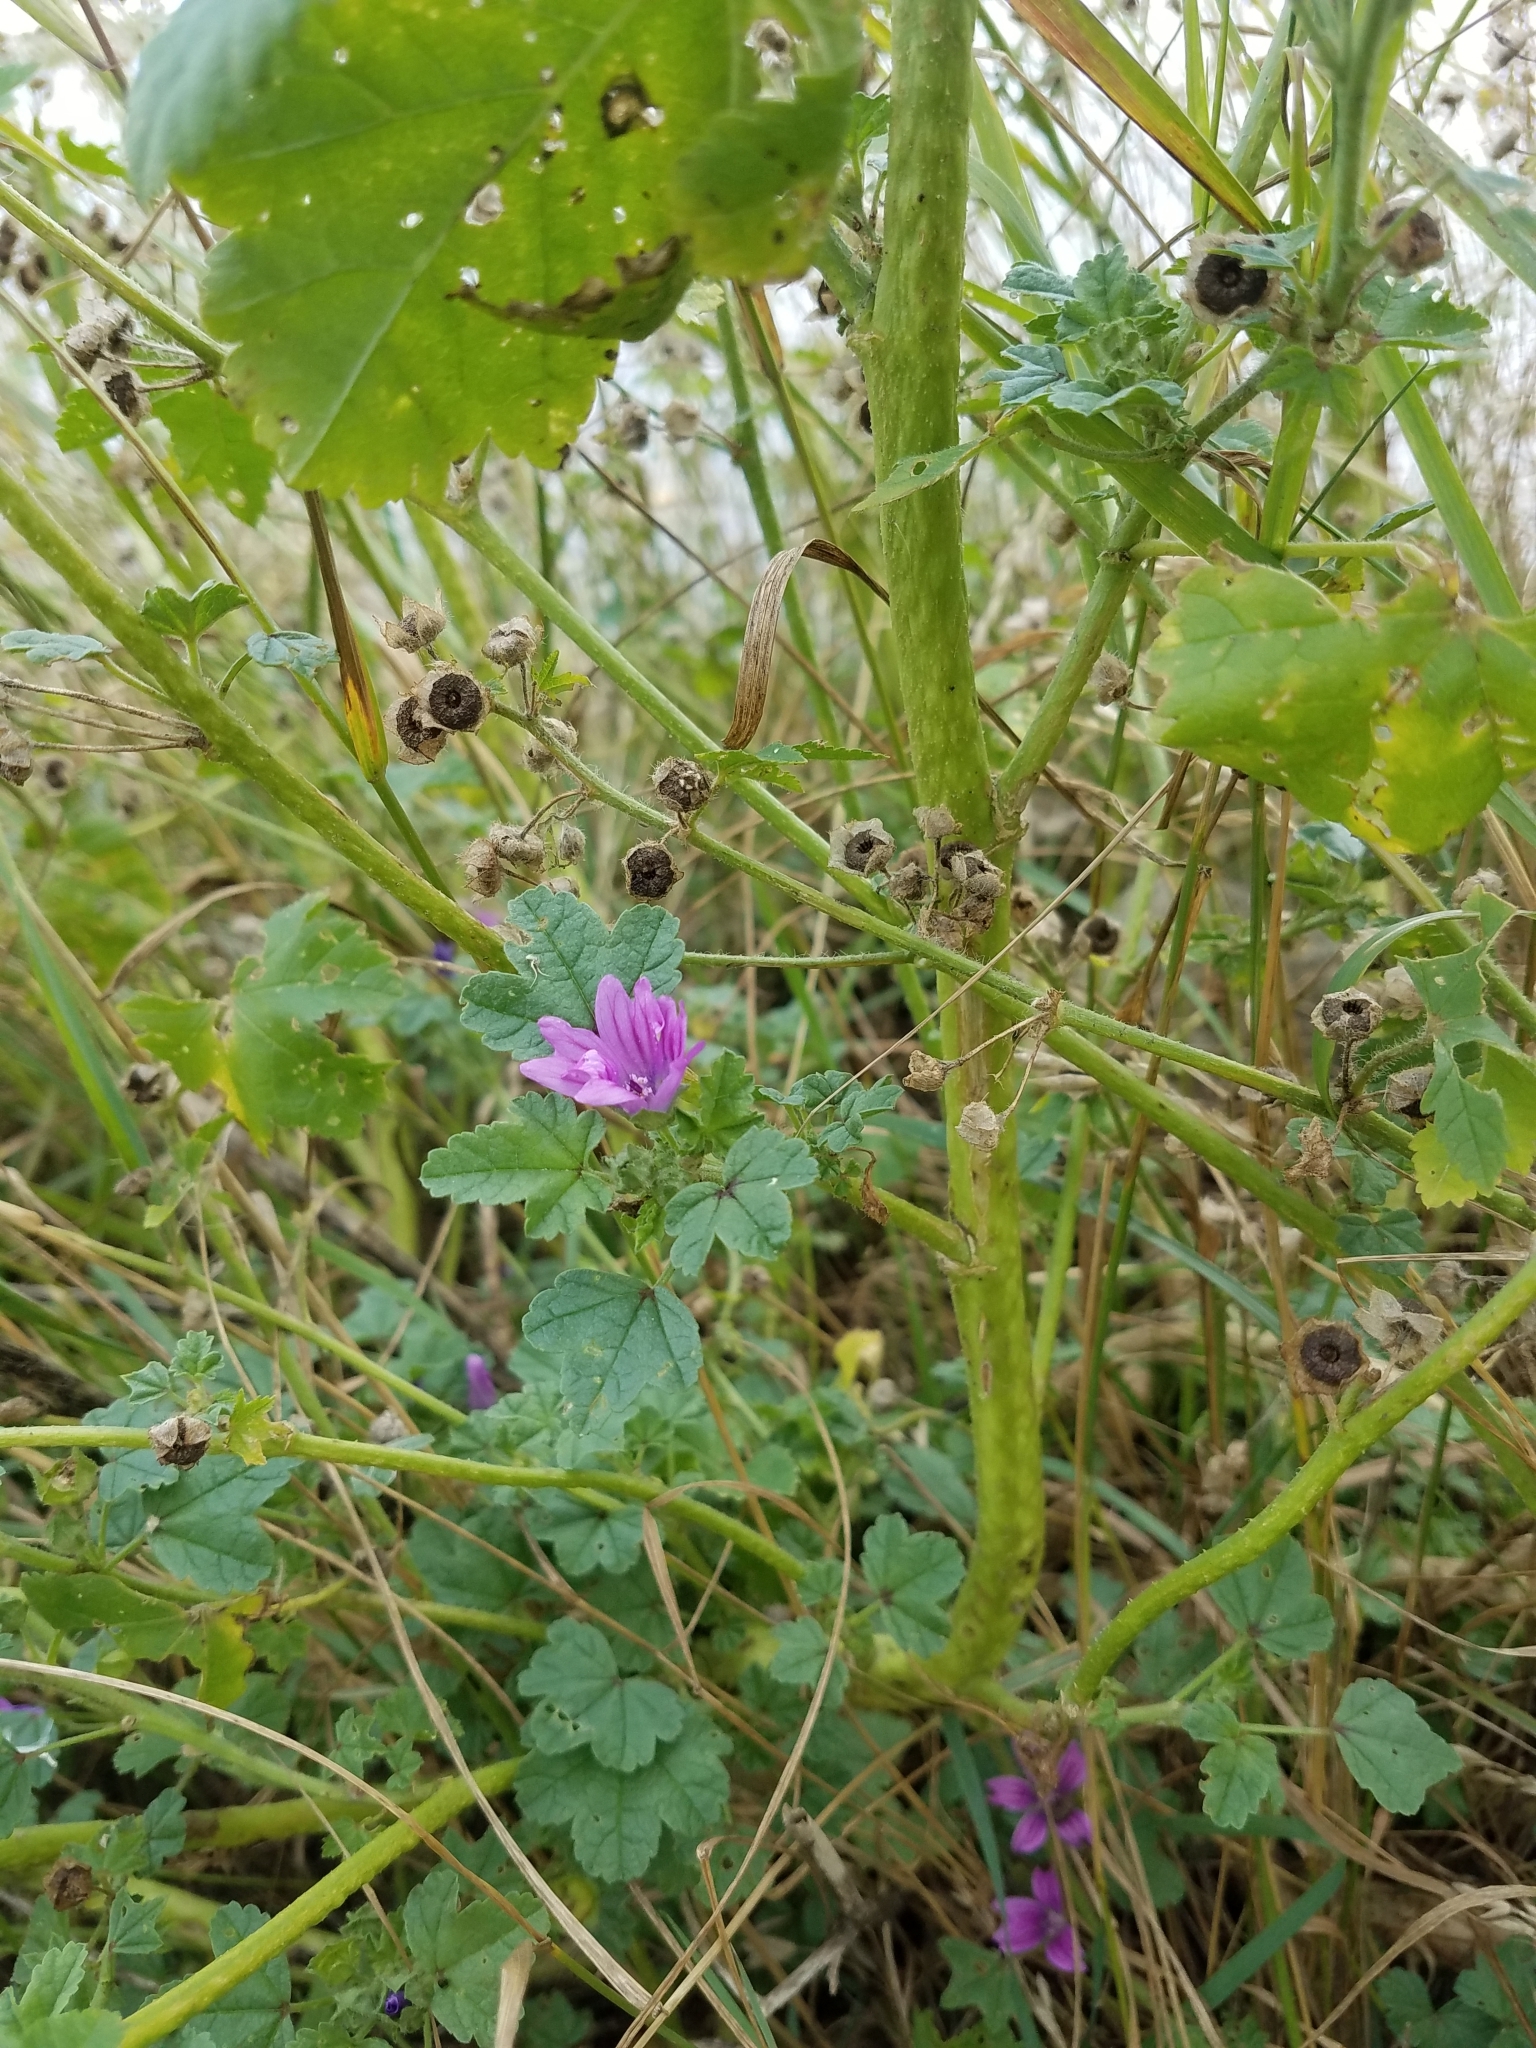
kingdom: Plantae
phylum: Tracheophyta
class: Magnoliopsida
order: Malvales
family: Malvaceae
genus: Malva
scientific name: Malva sylvestris
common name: Common mallow
